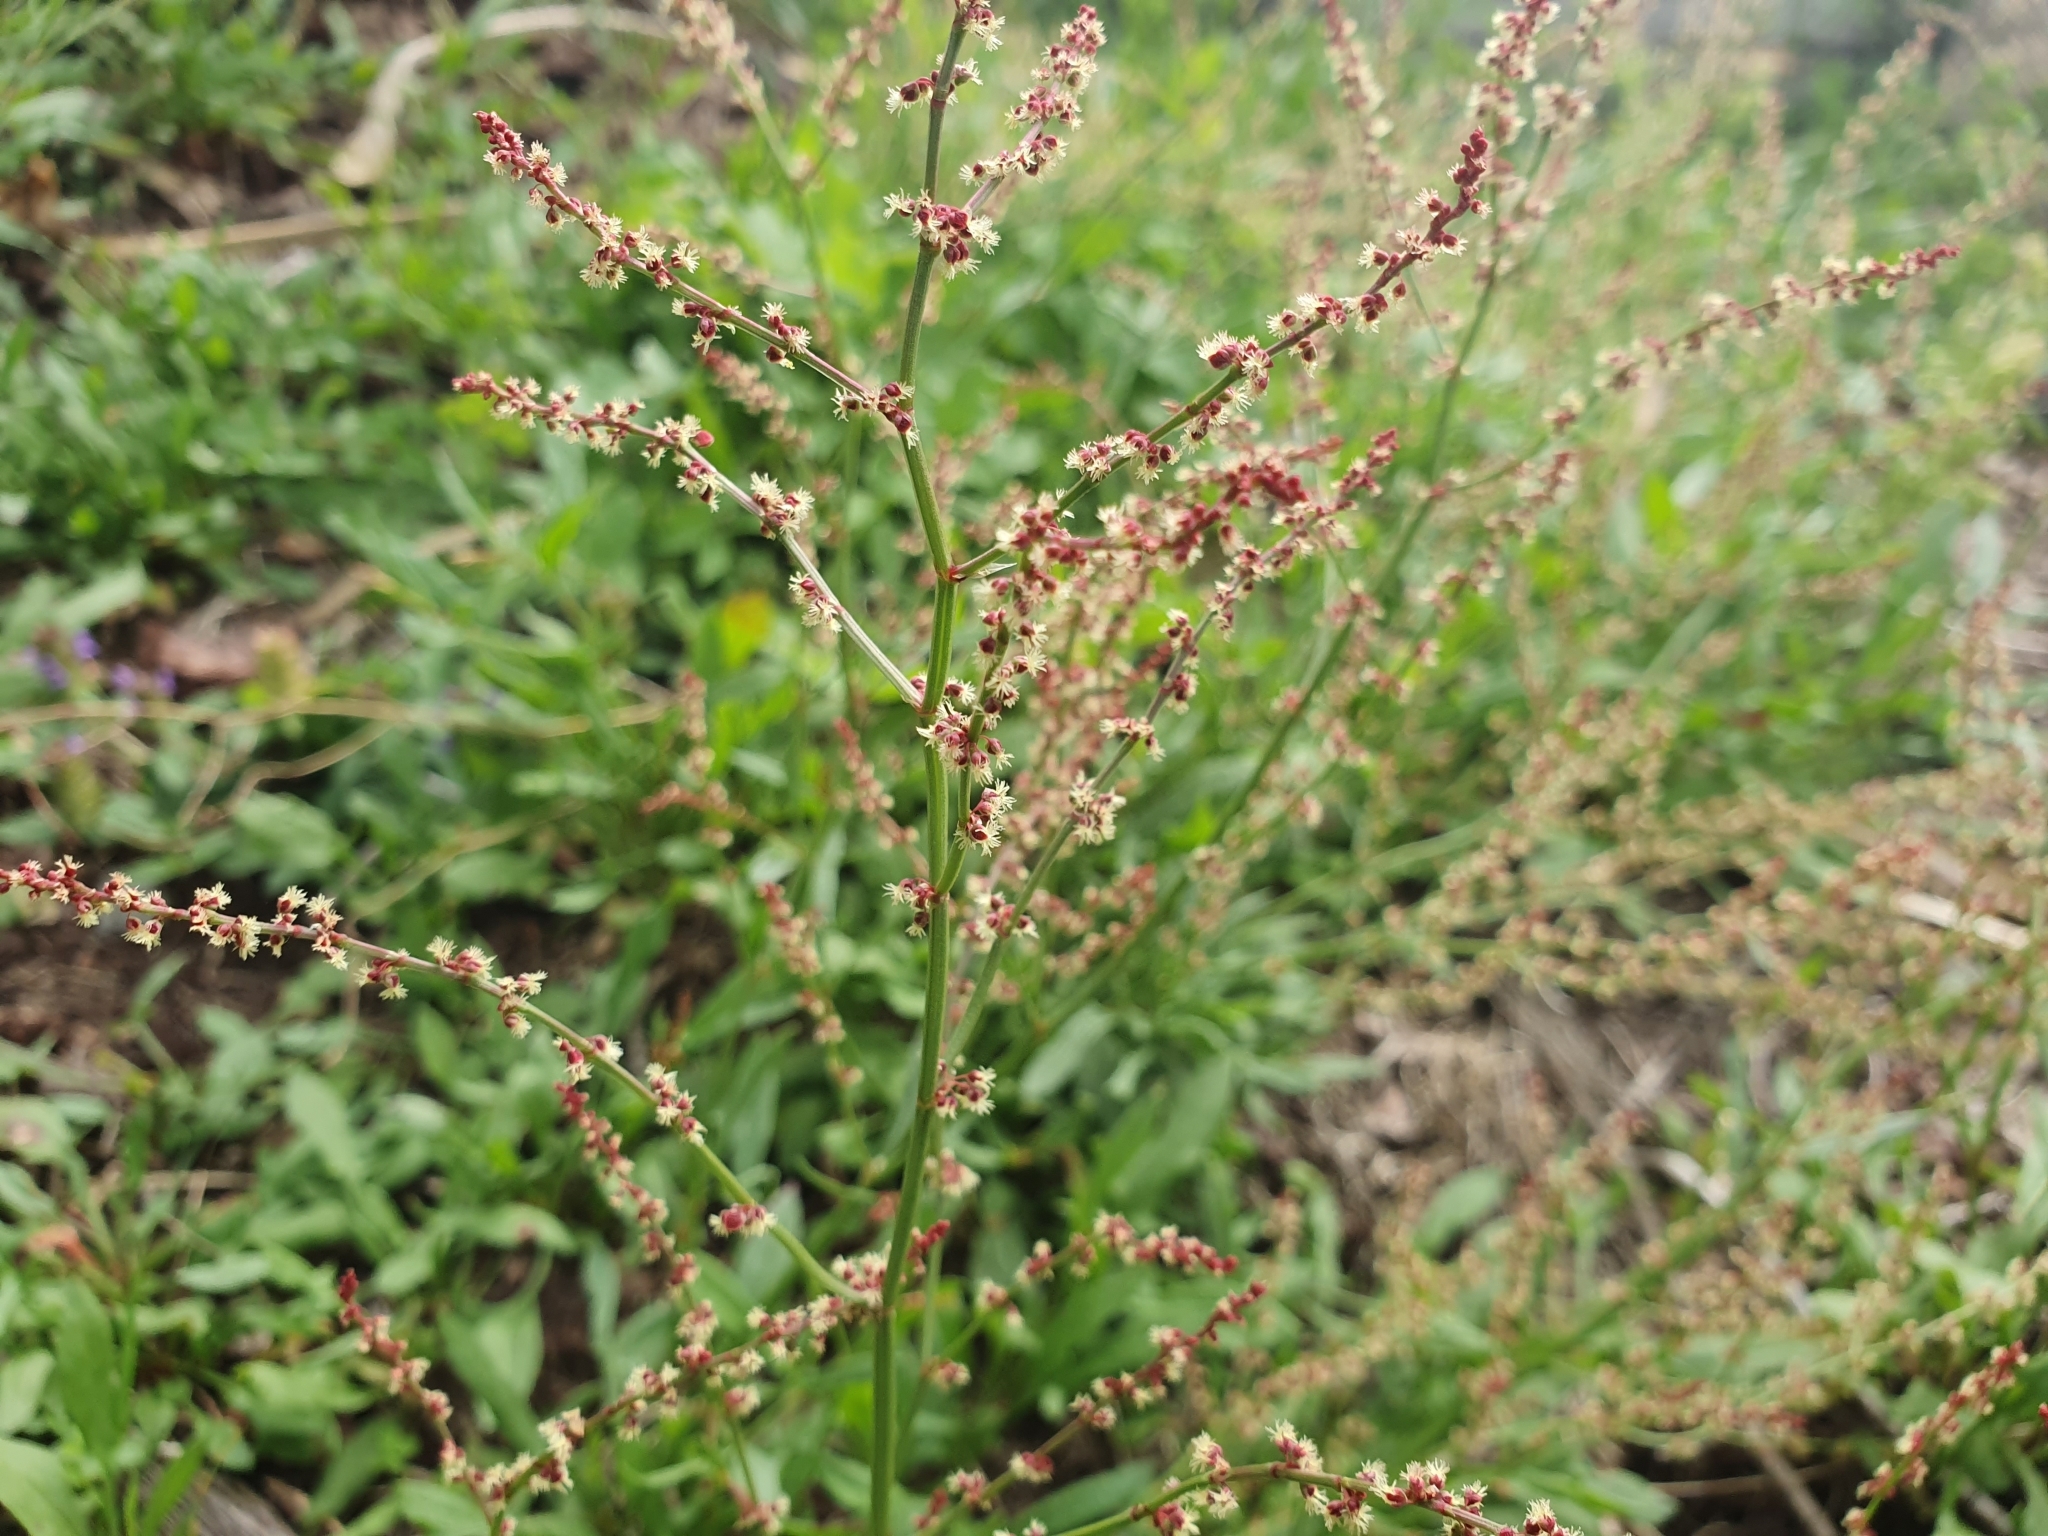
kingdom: Plantae
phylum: Tracheophyta
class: Magnoliopsida
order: Caryophyllales
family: Polygonaceae
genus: Rumex
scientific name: Rumex acetosella
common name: Common sheep sorrel
